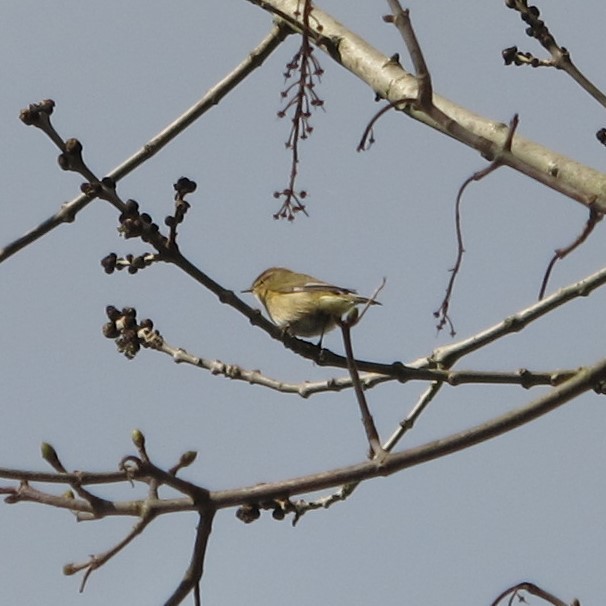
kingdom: Animalia
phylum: Chordata
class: Aves
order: Passeriformes
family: Phylloscopidae
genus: Phylloscopus
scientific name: Phylloscopus collybita
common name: Common chiffchaff
